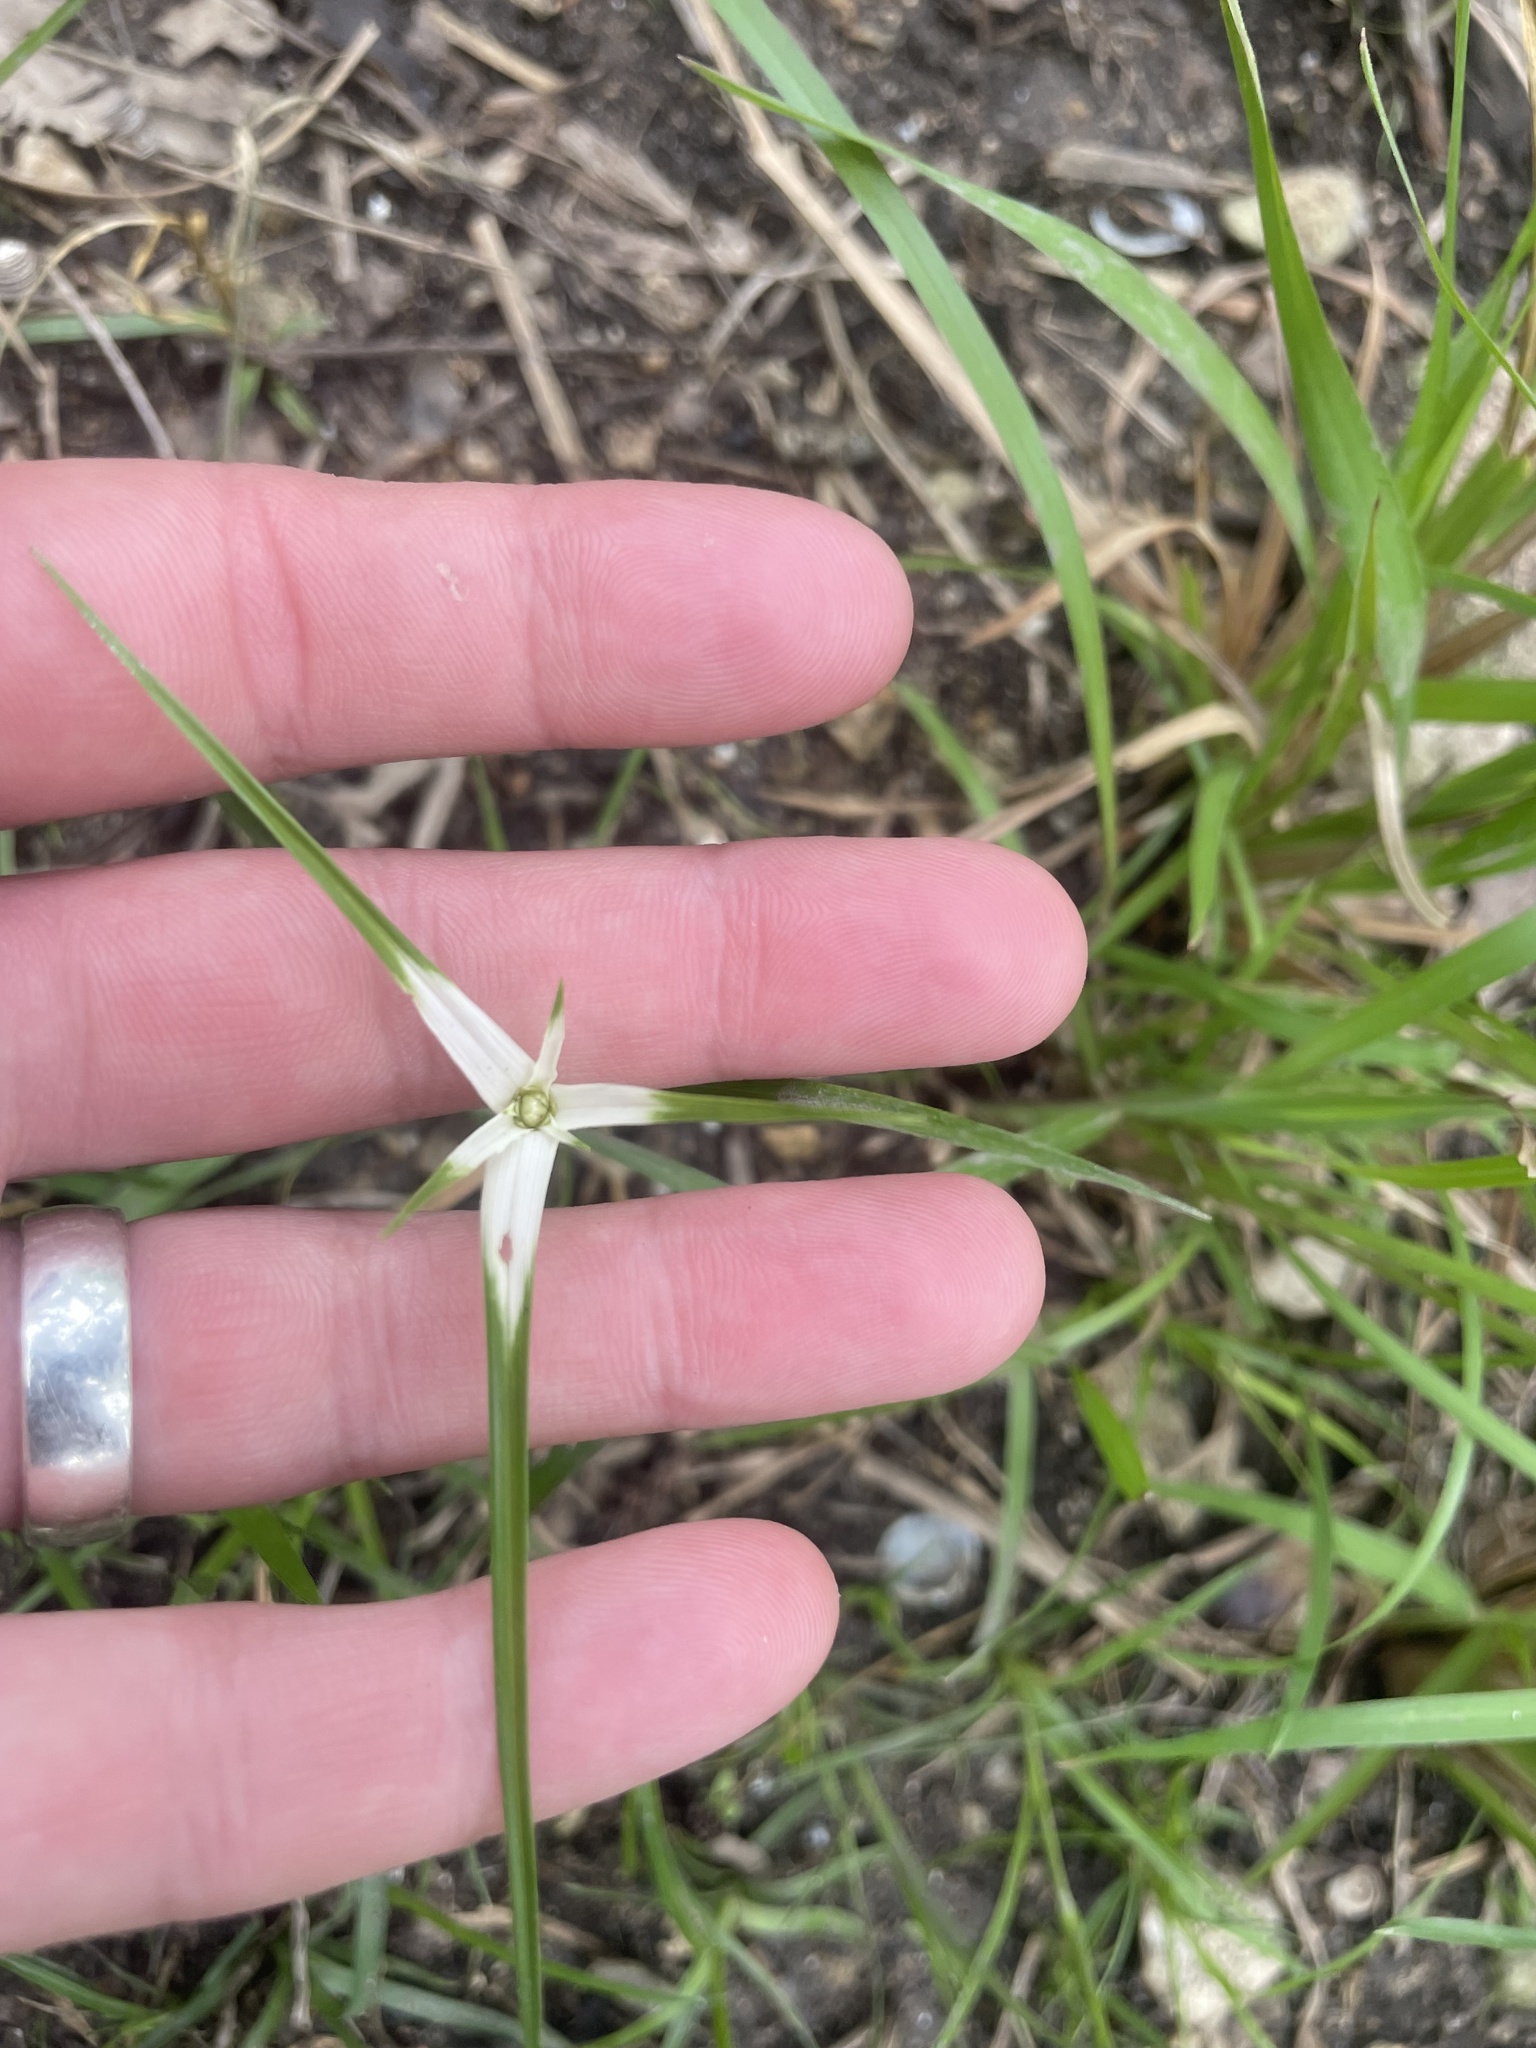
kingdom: Plantae
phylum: Tracheophyta
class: Liliopsida
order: Poales
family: Cyperaceae
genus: Rhynchospora
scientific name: Rhynchospora colorata
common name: Star sedge
